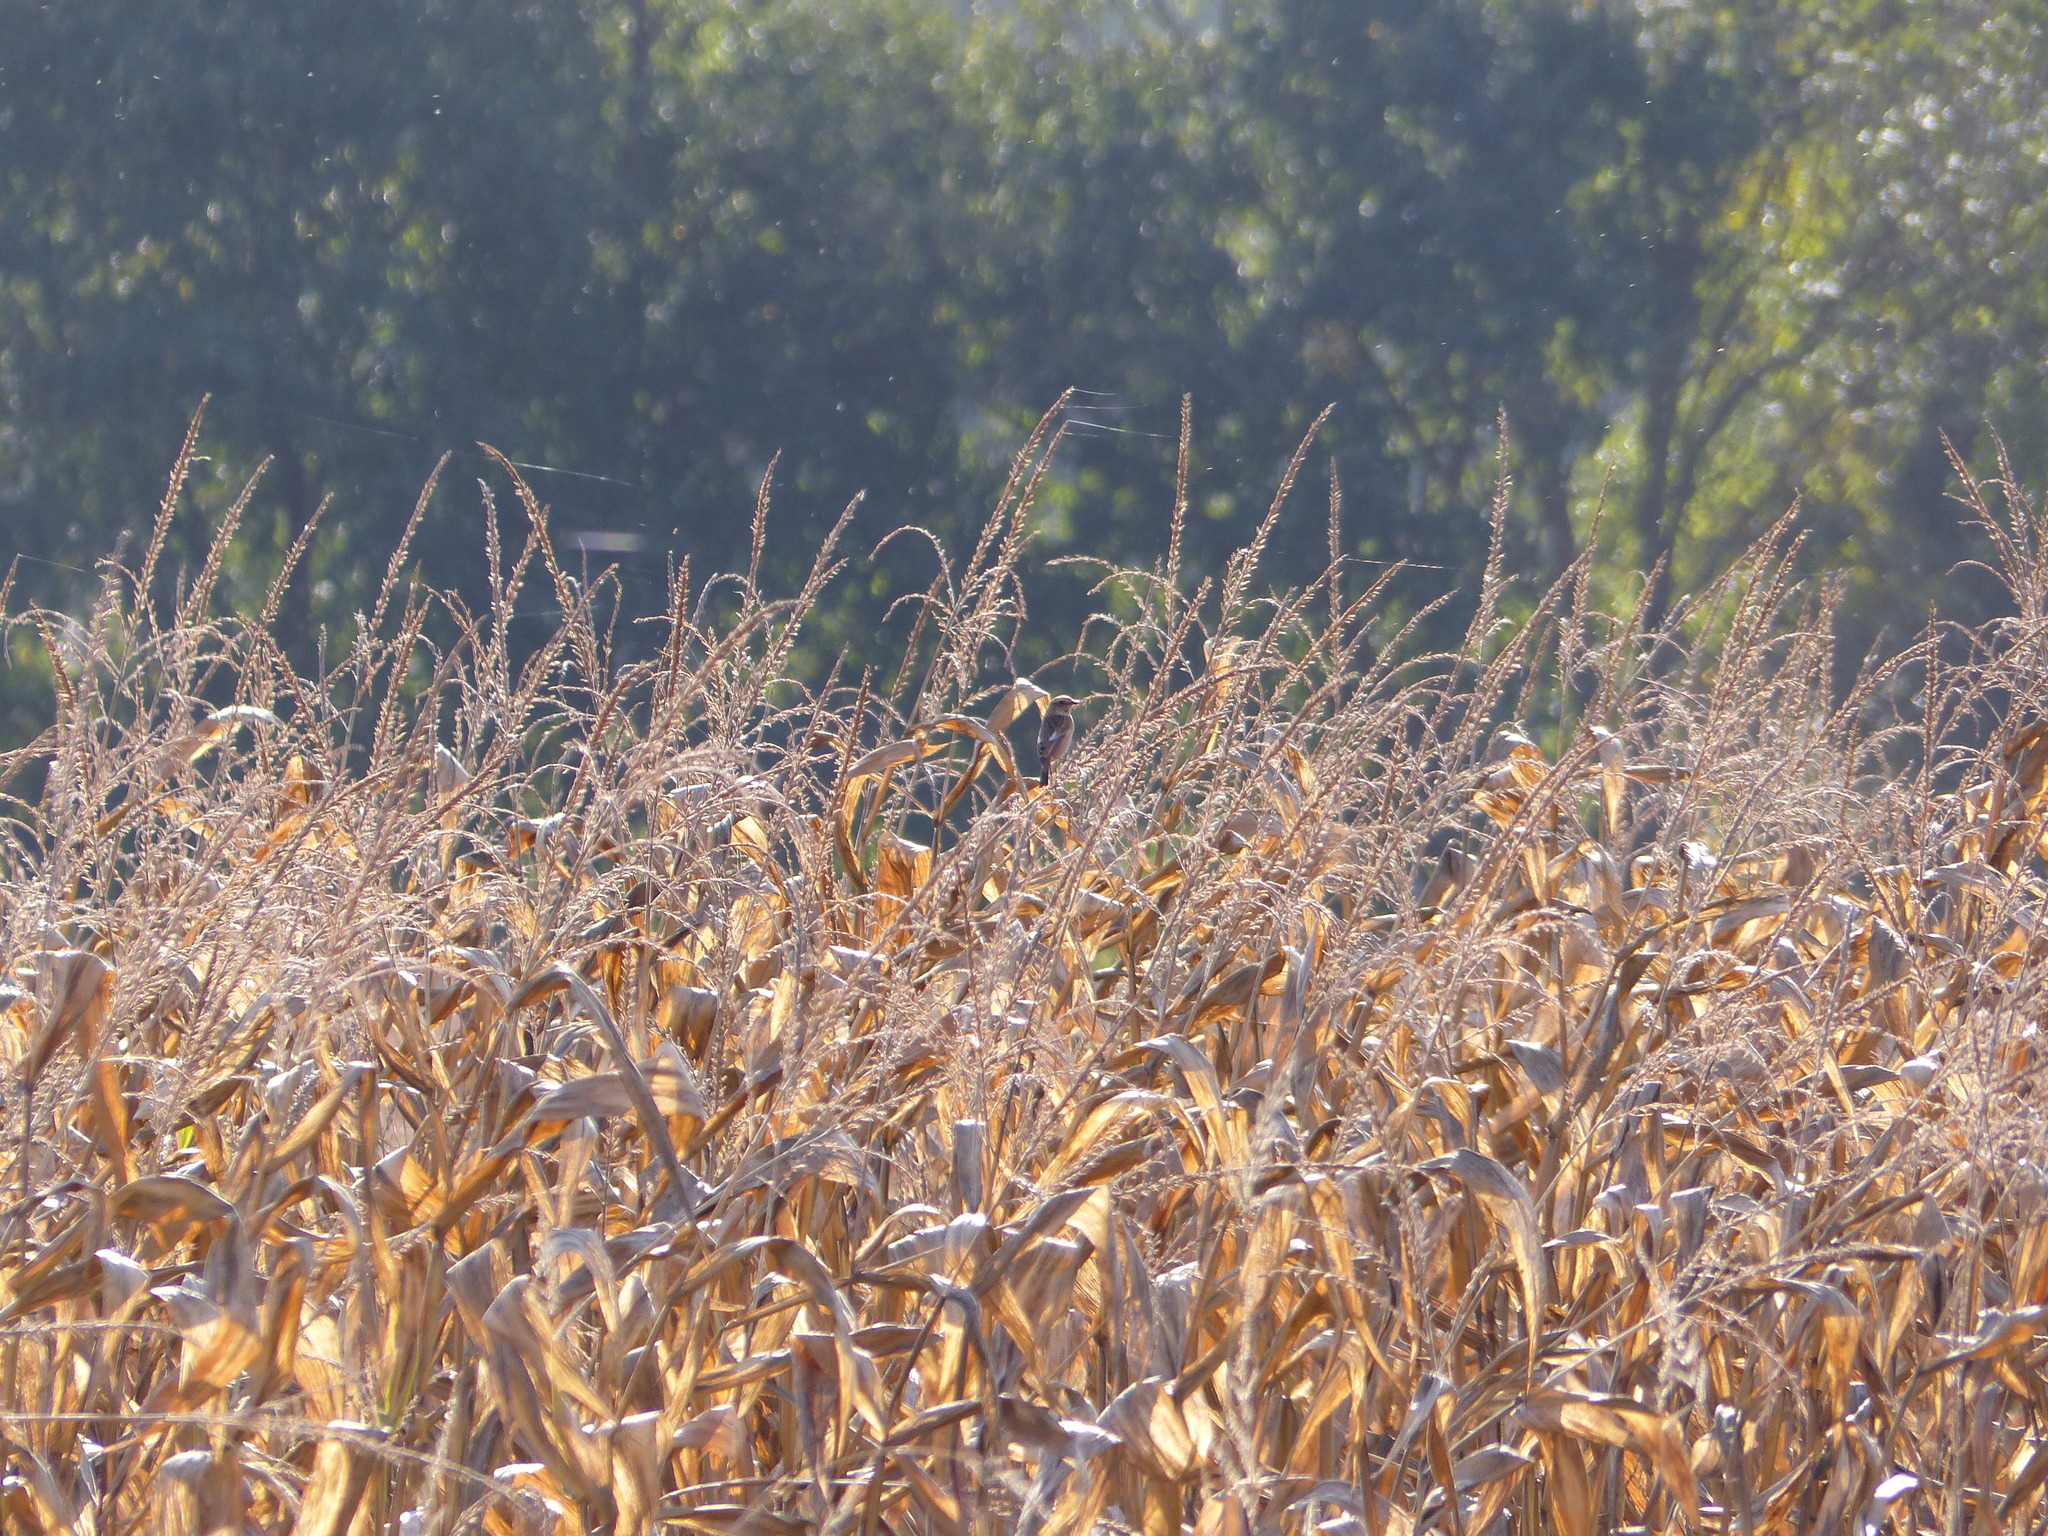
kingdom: Animalia
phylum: Chordata
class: Aves
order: Passeriformes
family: Muscicapidae
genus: Saxicola
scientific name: Saxicola rubicola
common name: European stonechat
